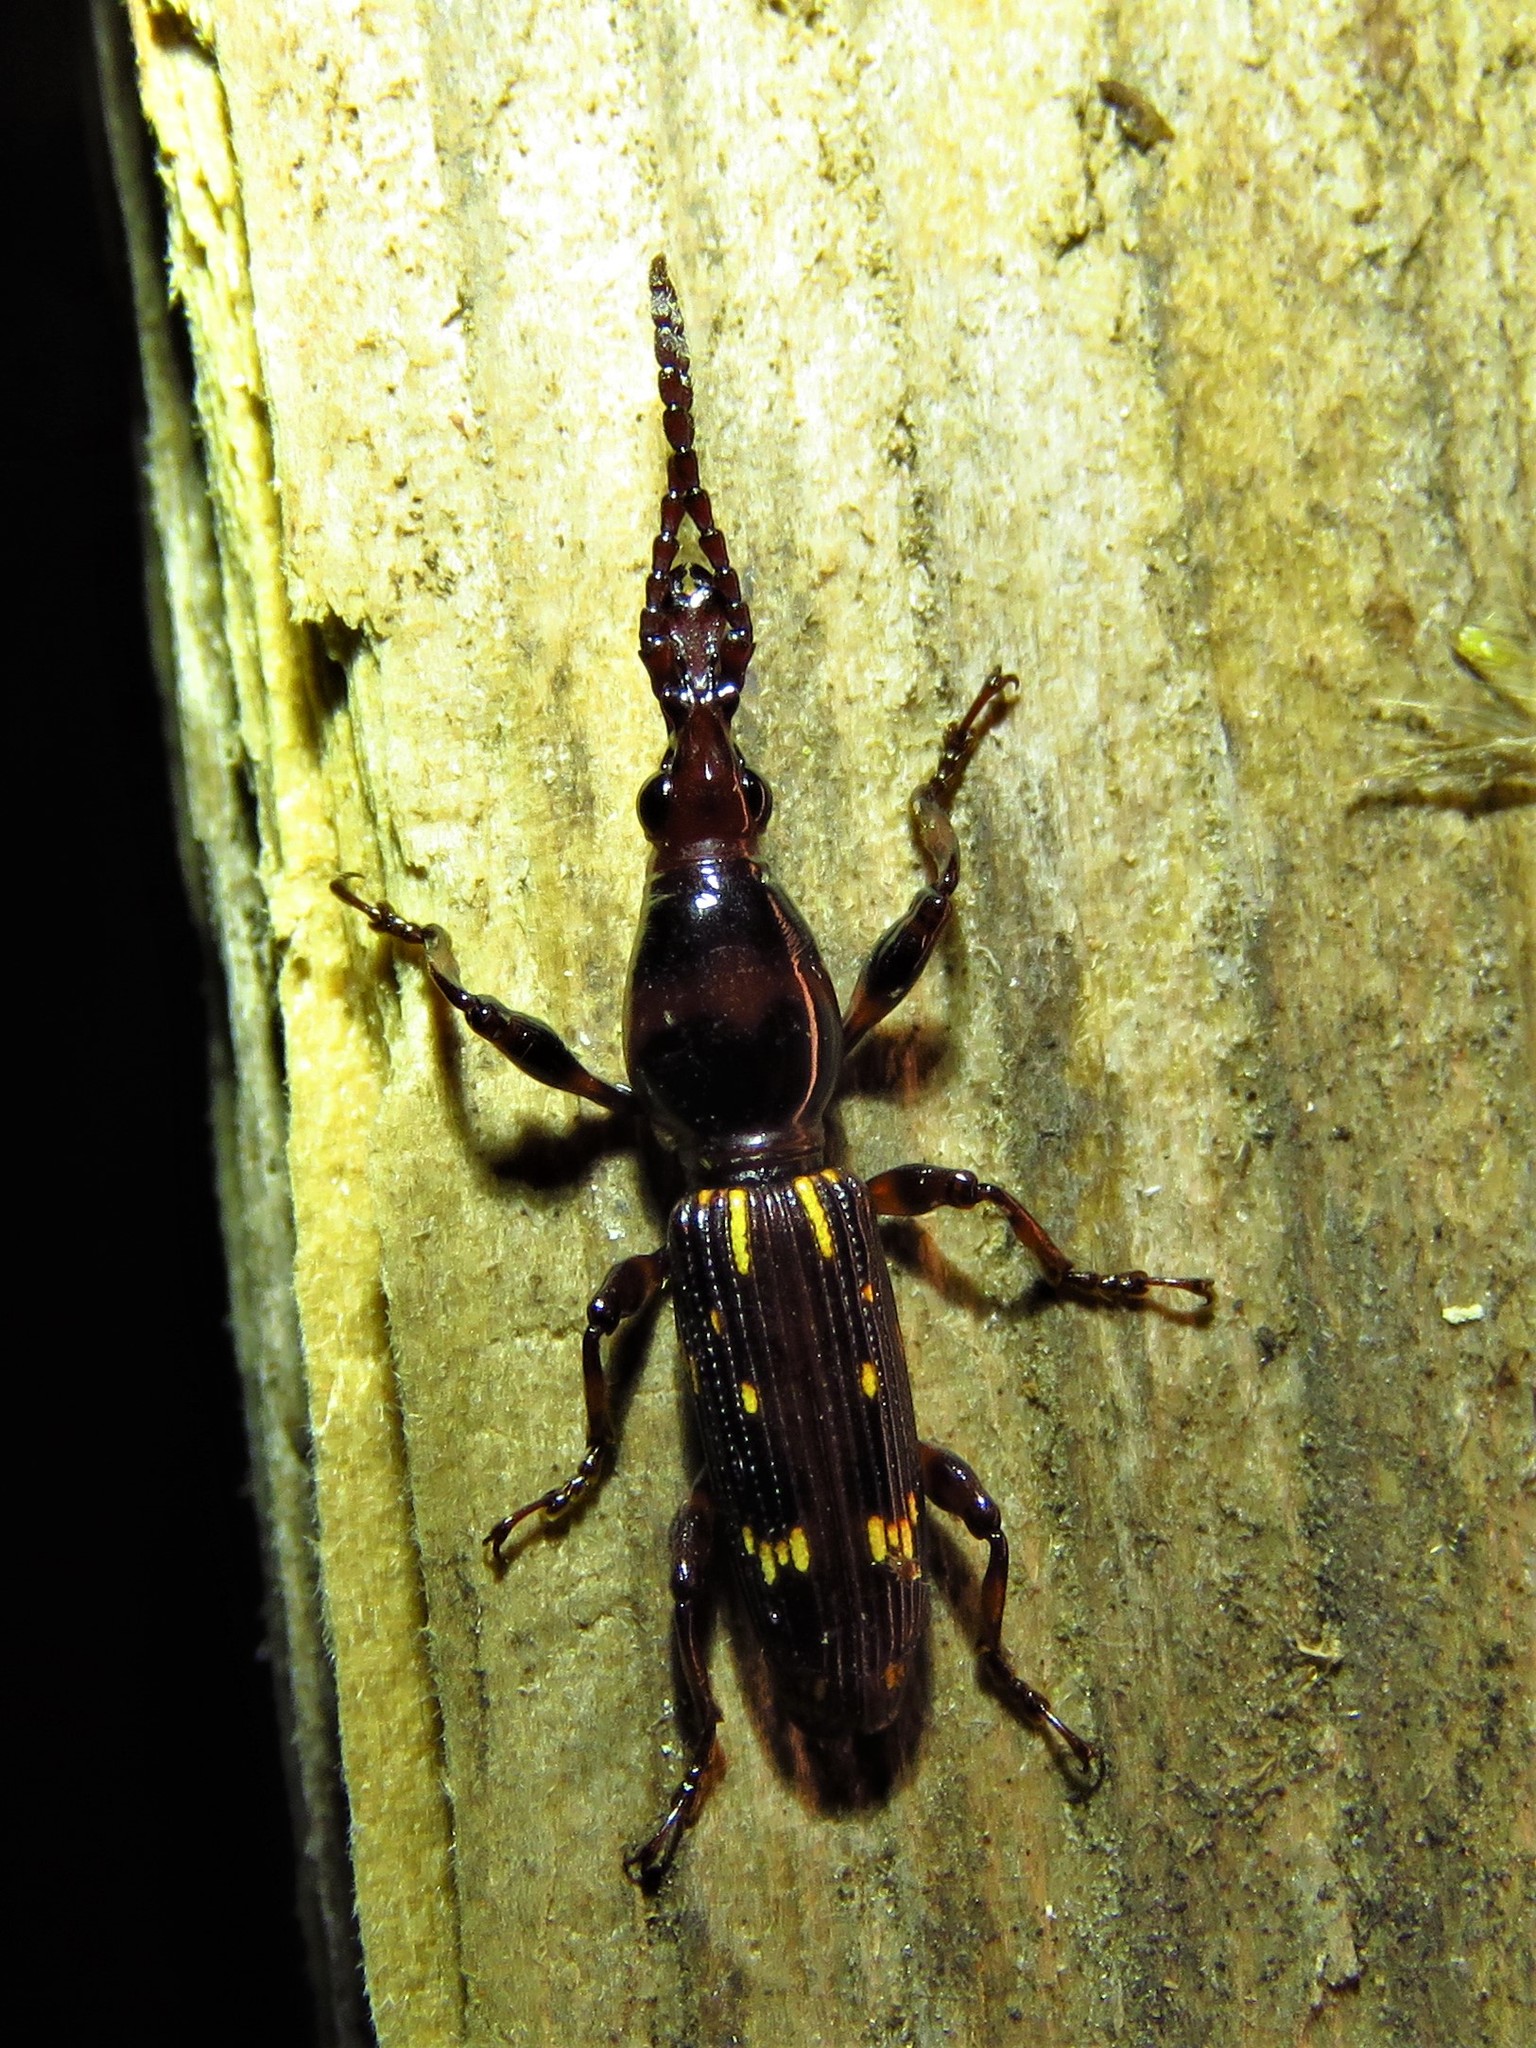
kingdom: Animalia
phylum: Arthropoda
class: Insecta
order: Coleoptera
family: Brentidae
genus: Arrenodes
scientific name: Arrenodes minutus
